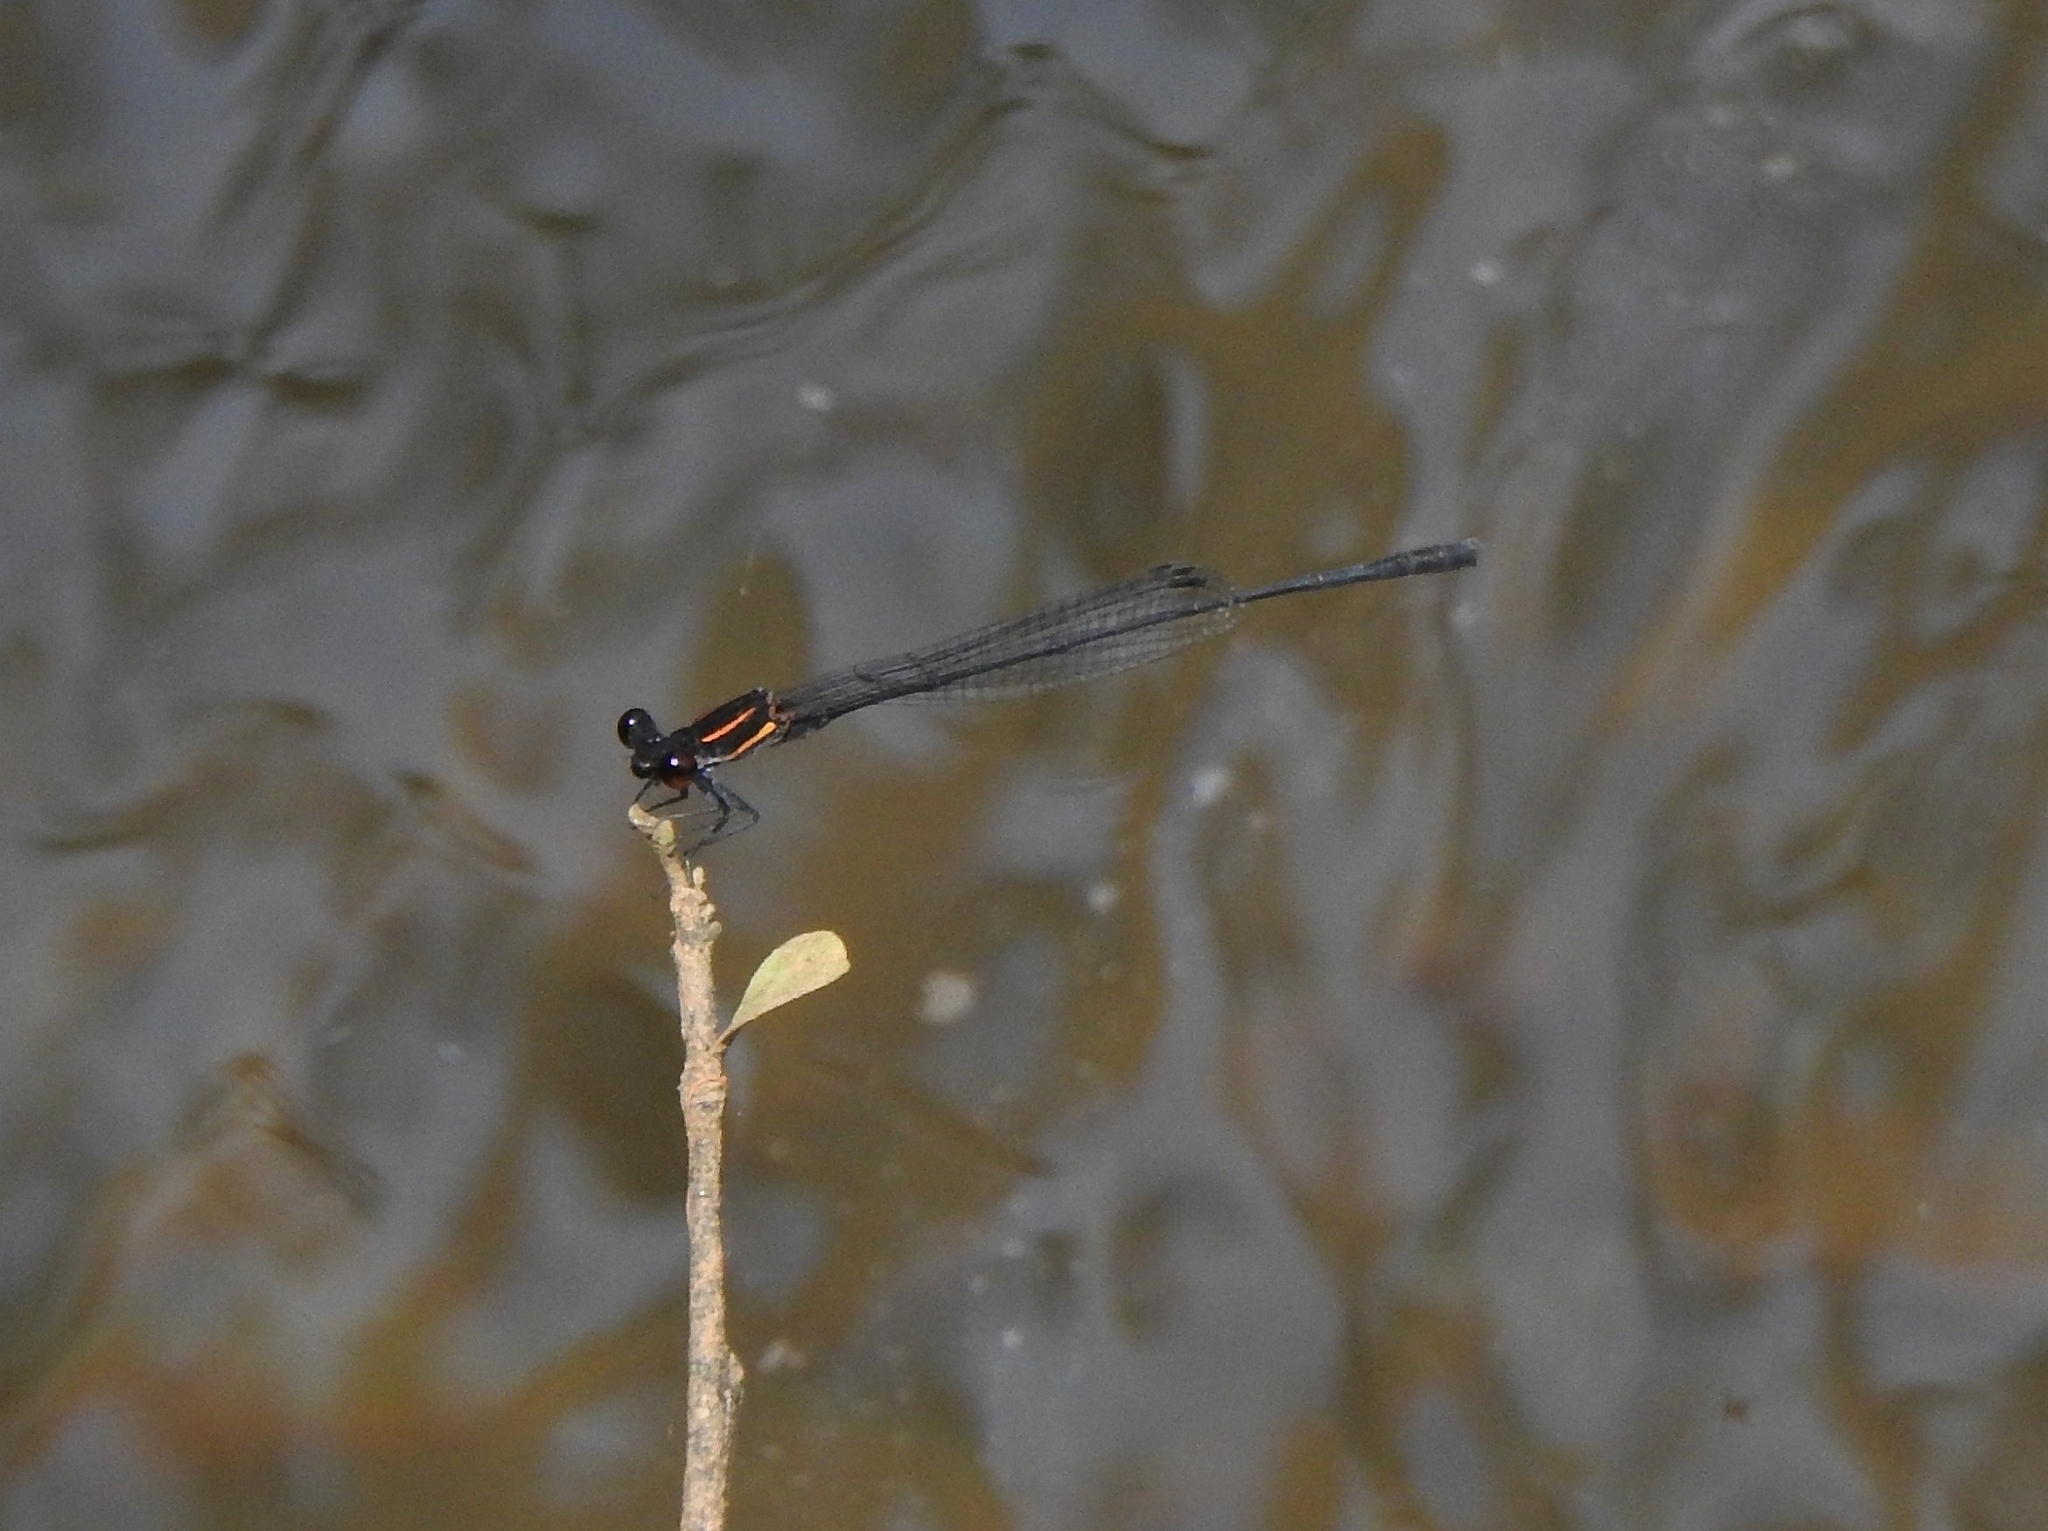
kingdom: Animalia
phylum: Arthropoda
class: Insecta
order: Odonata
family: Platycnemididae
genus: Prodasineura
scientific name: Prodasineura verticalis
